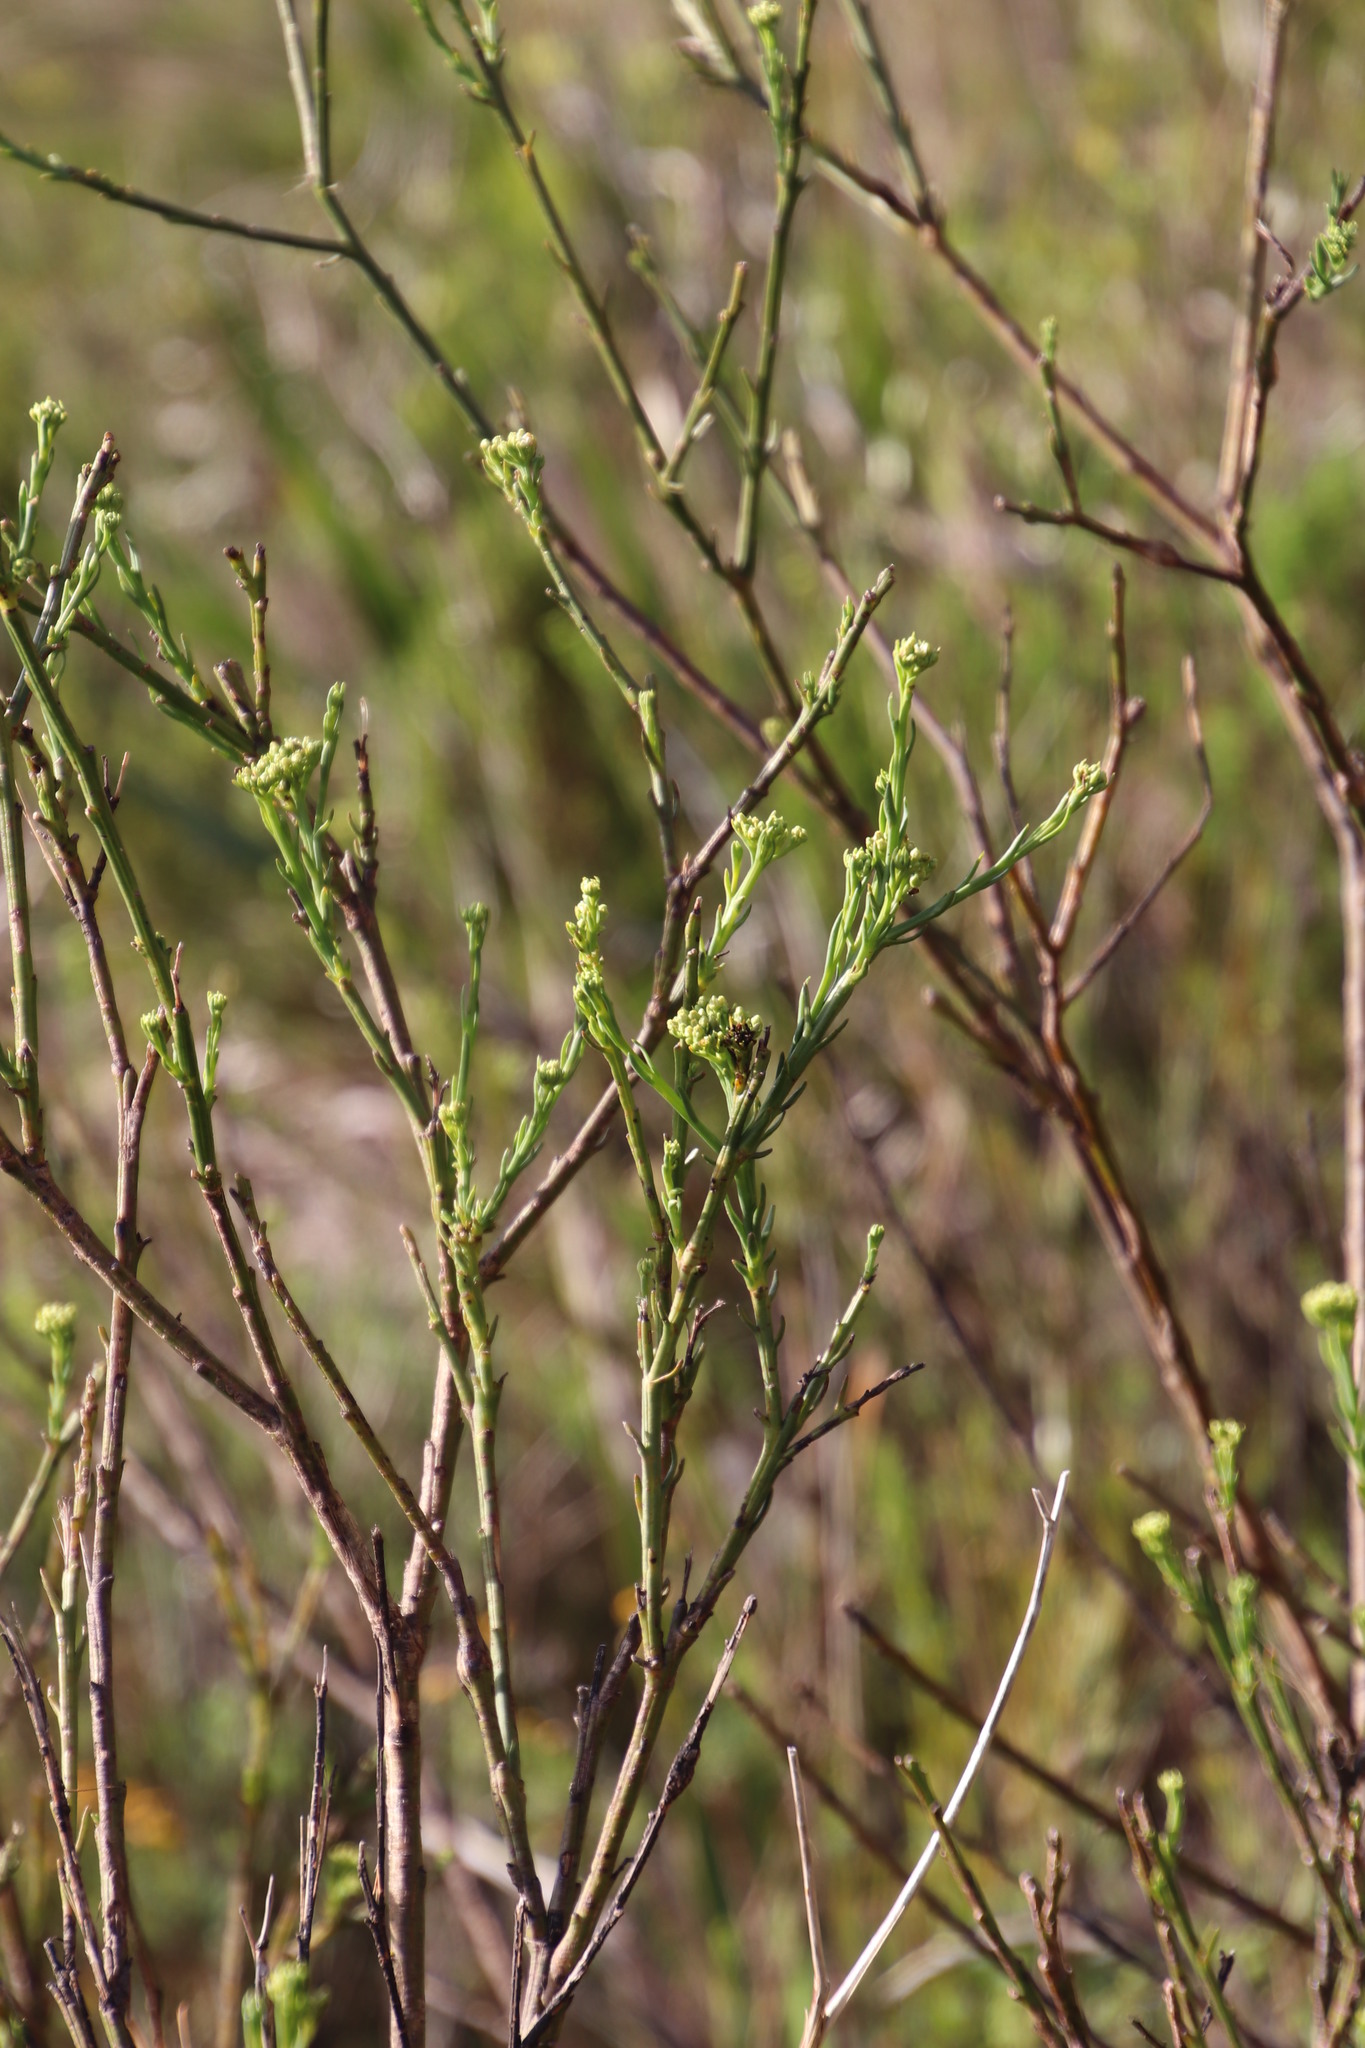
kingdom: Plantae
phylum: Tracheophyta
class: Magnoliopsida
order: Santalales
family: Thesiaceae
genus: Thesium
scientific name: Thesium strictum
